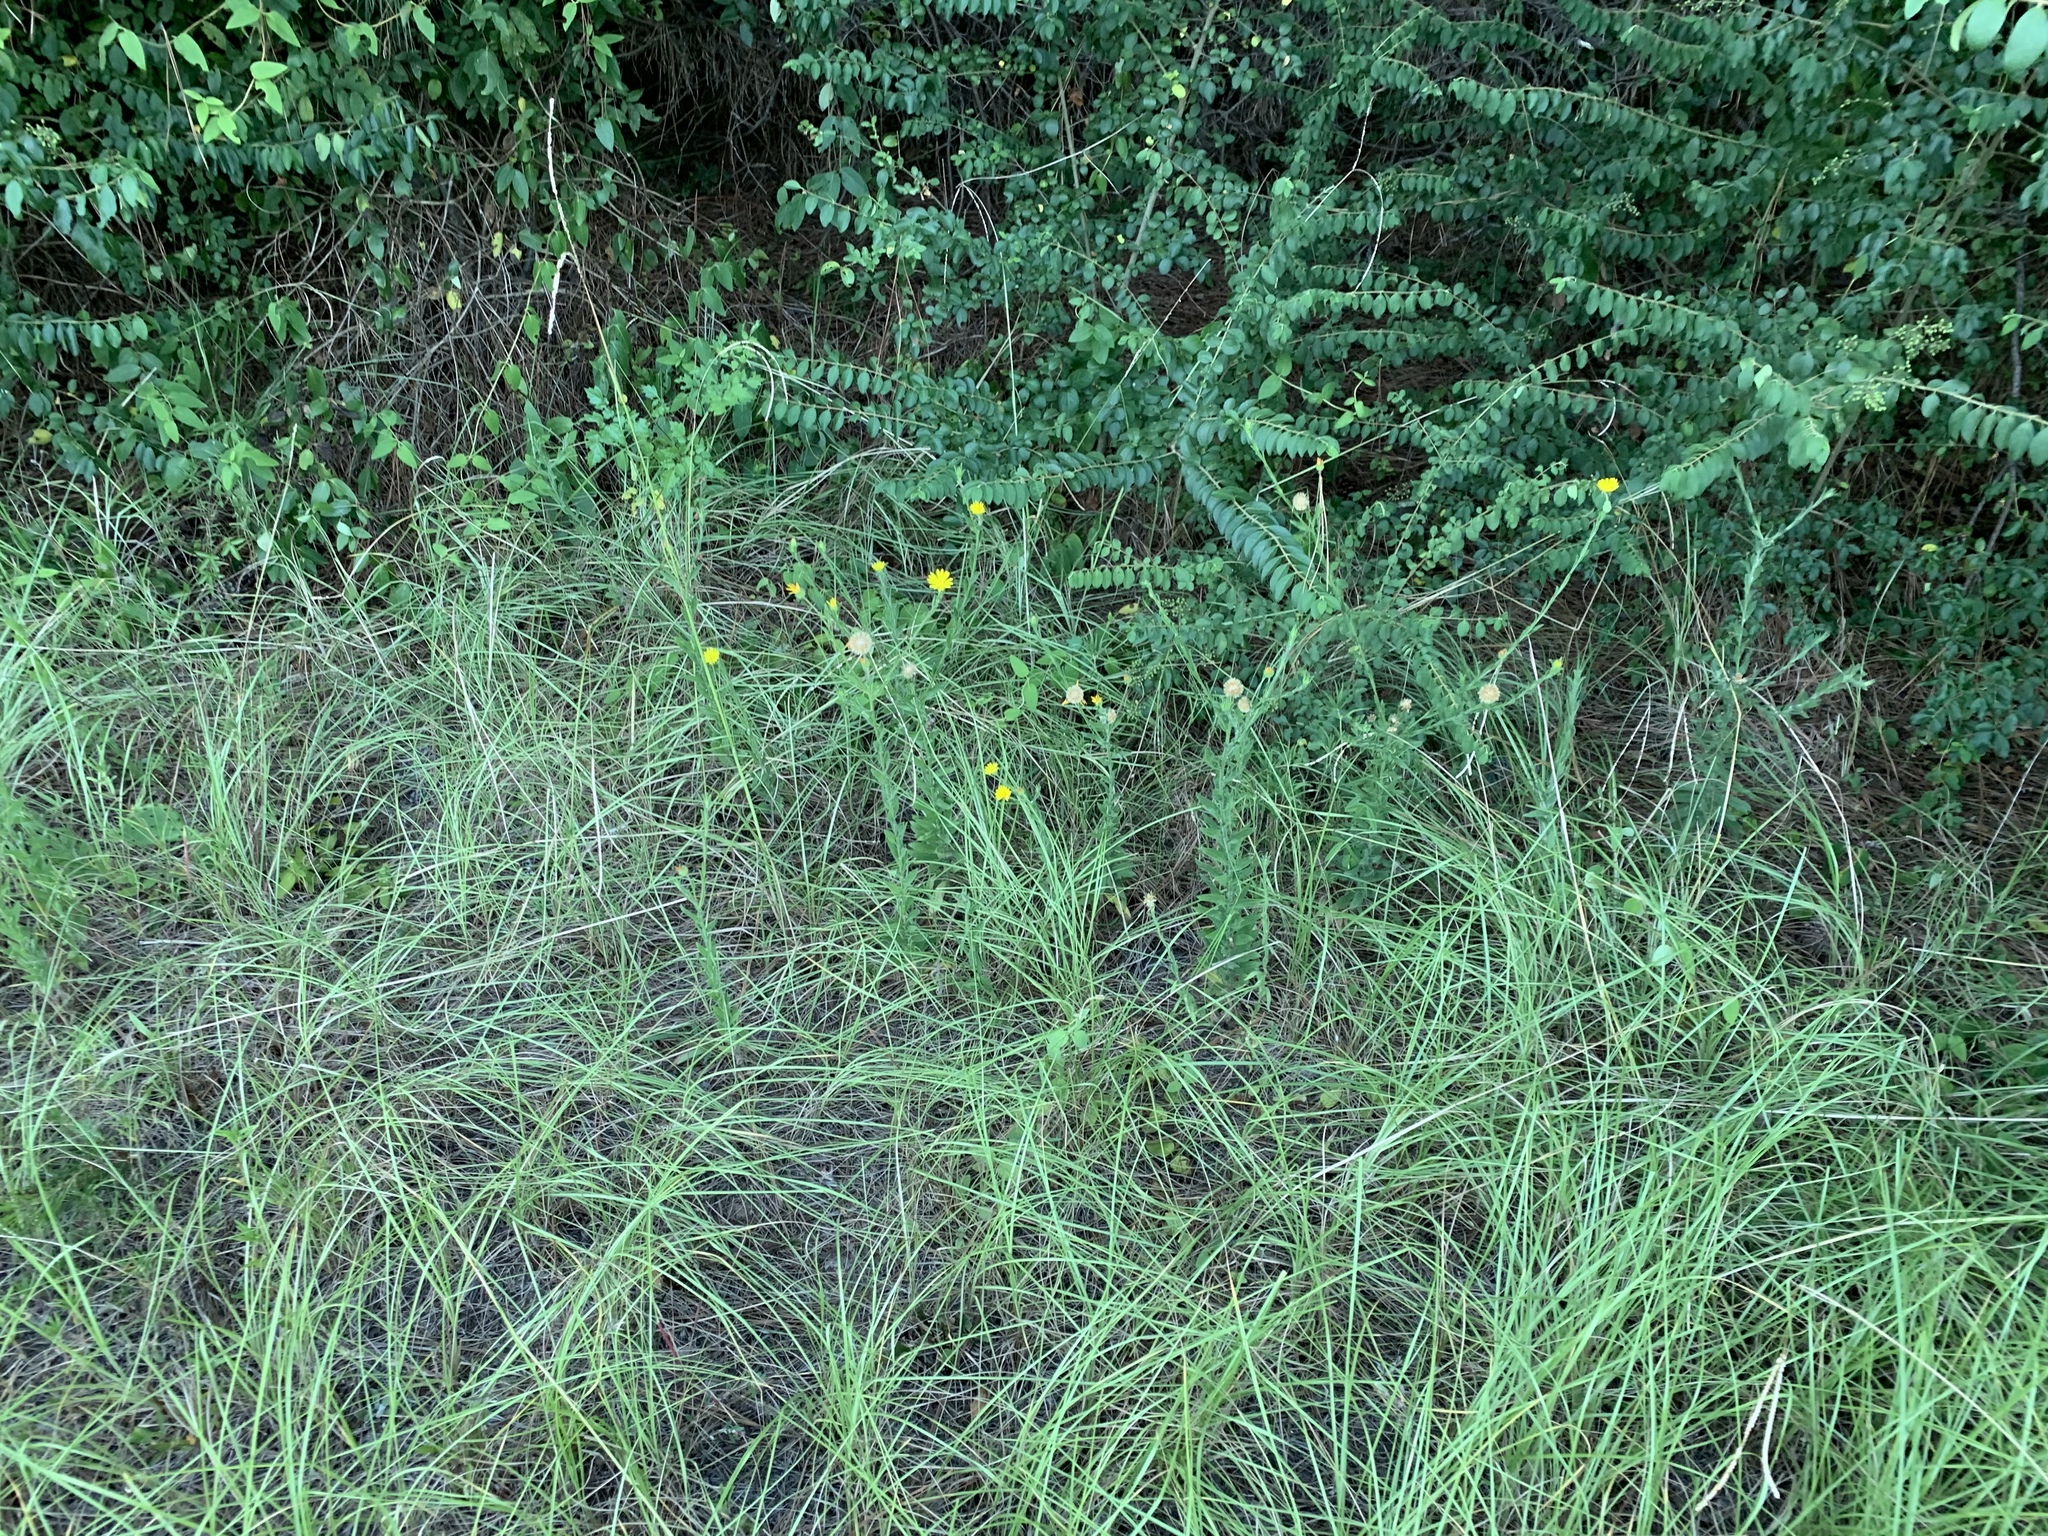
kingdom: Plantae
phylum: Tracheophyta
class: Magnoliopsida
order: Asterales
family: Asteraceae
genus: Bradburia
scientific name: Bradburia pilosa
